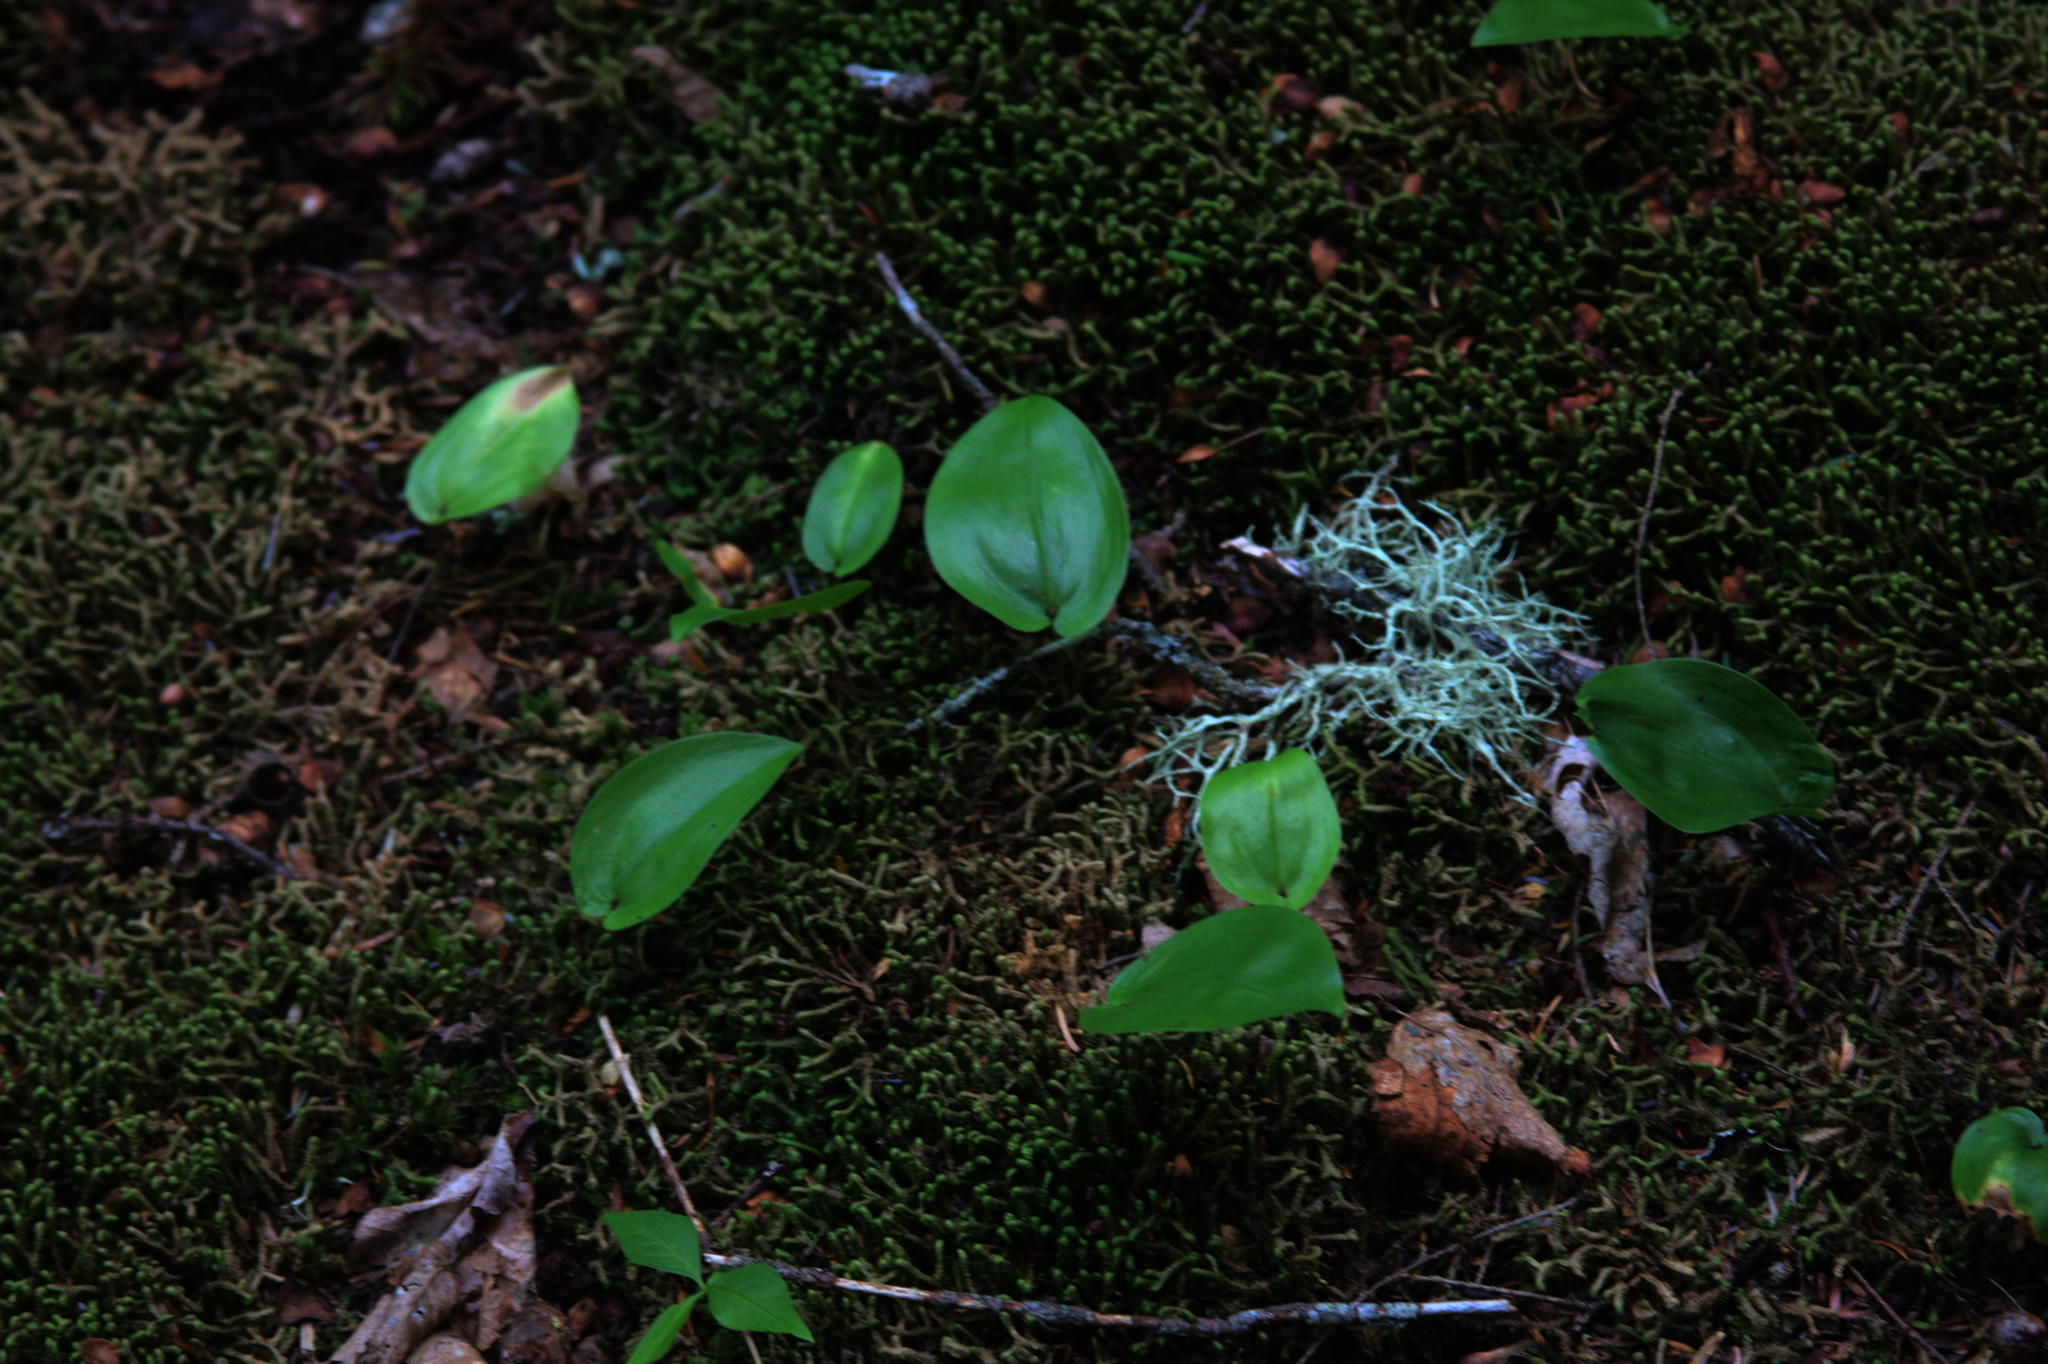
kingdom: Plantae
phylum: Tracheophyta
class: Liliopsida
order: Asparagales
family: Asparagaceae
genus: Maianthemum
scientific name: Maianthemum canadense
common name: False lily-of-the-valley
